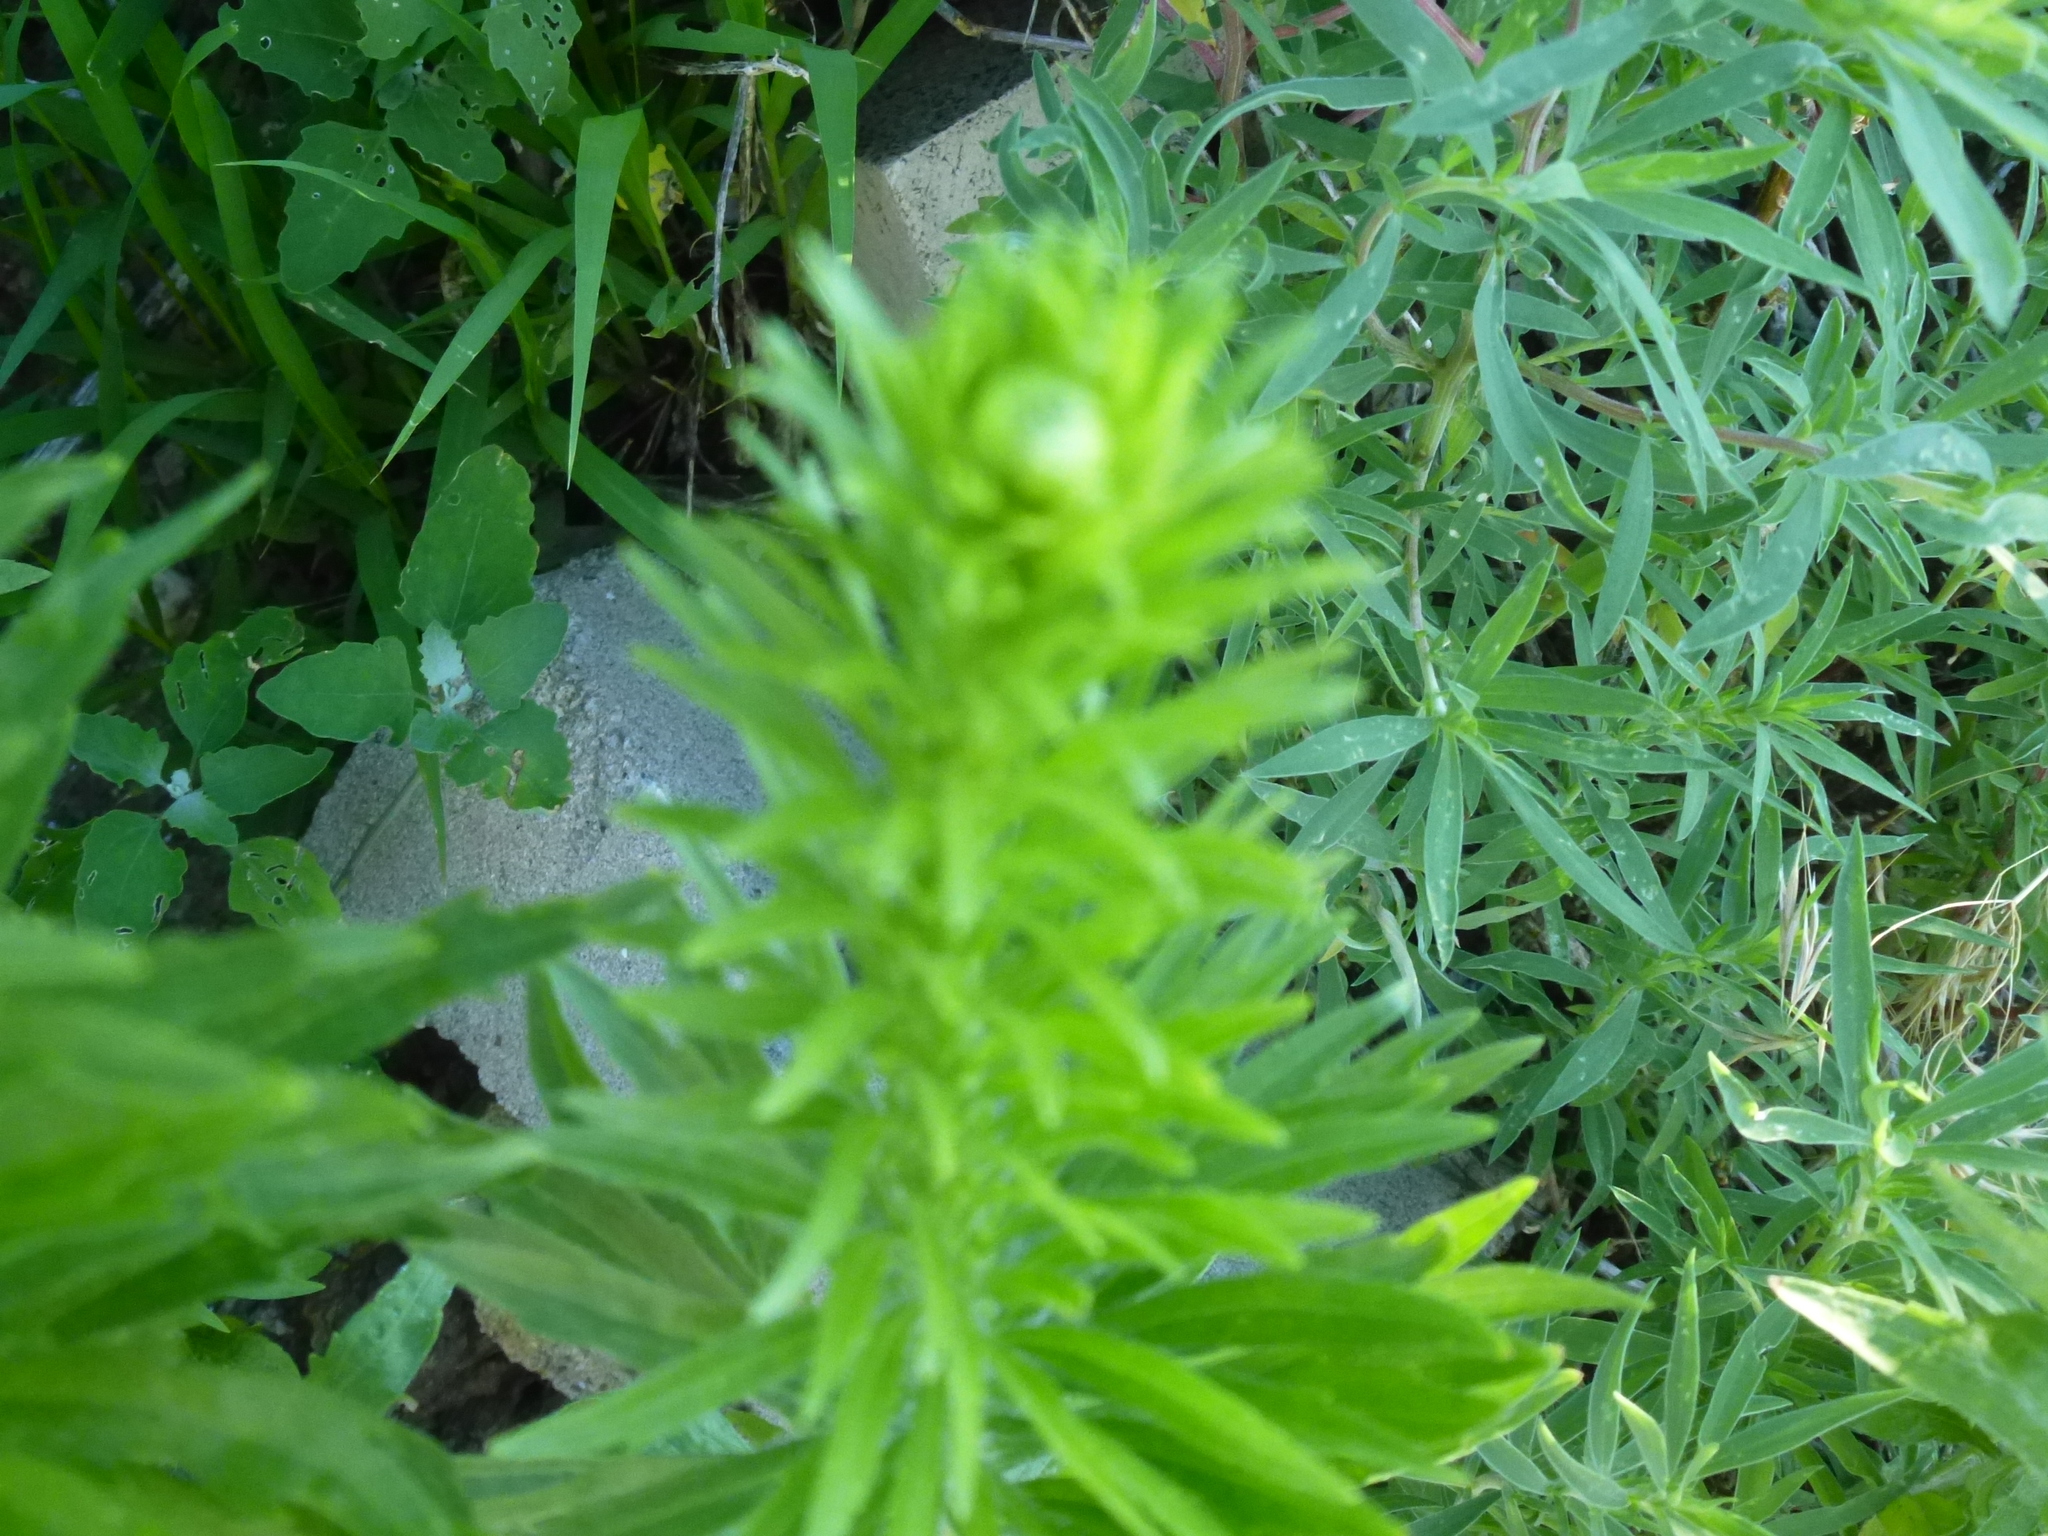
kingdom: Plantae
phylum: Tracheophyta
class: Magnoliopsida
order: Asterales
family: Asteraceae
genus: Erigeron
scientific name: Erigeron canadensis
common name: Canadian fleabane
